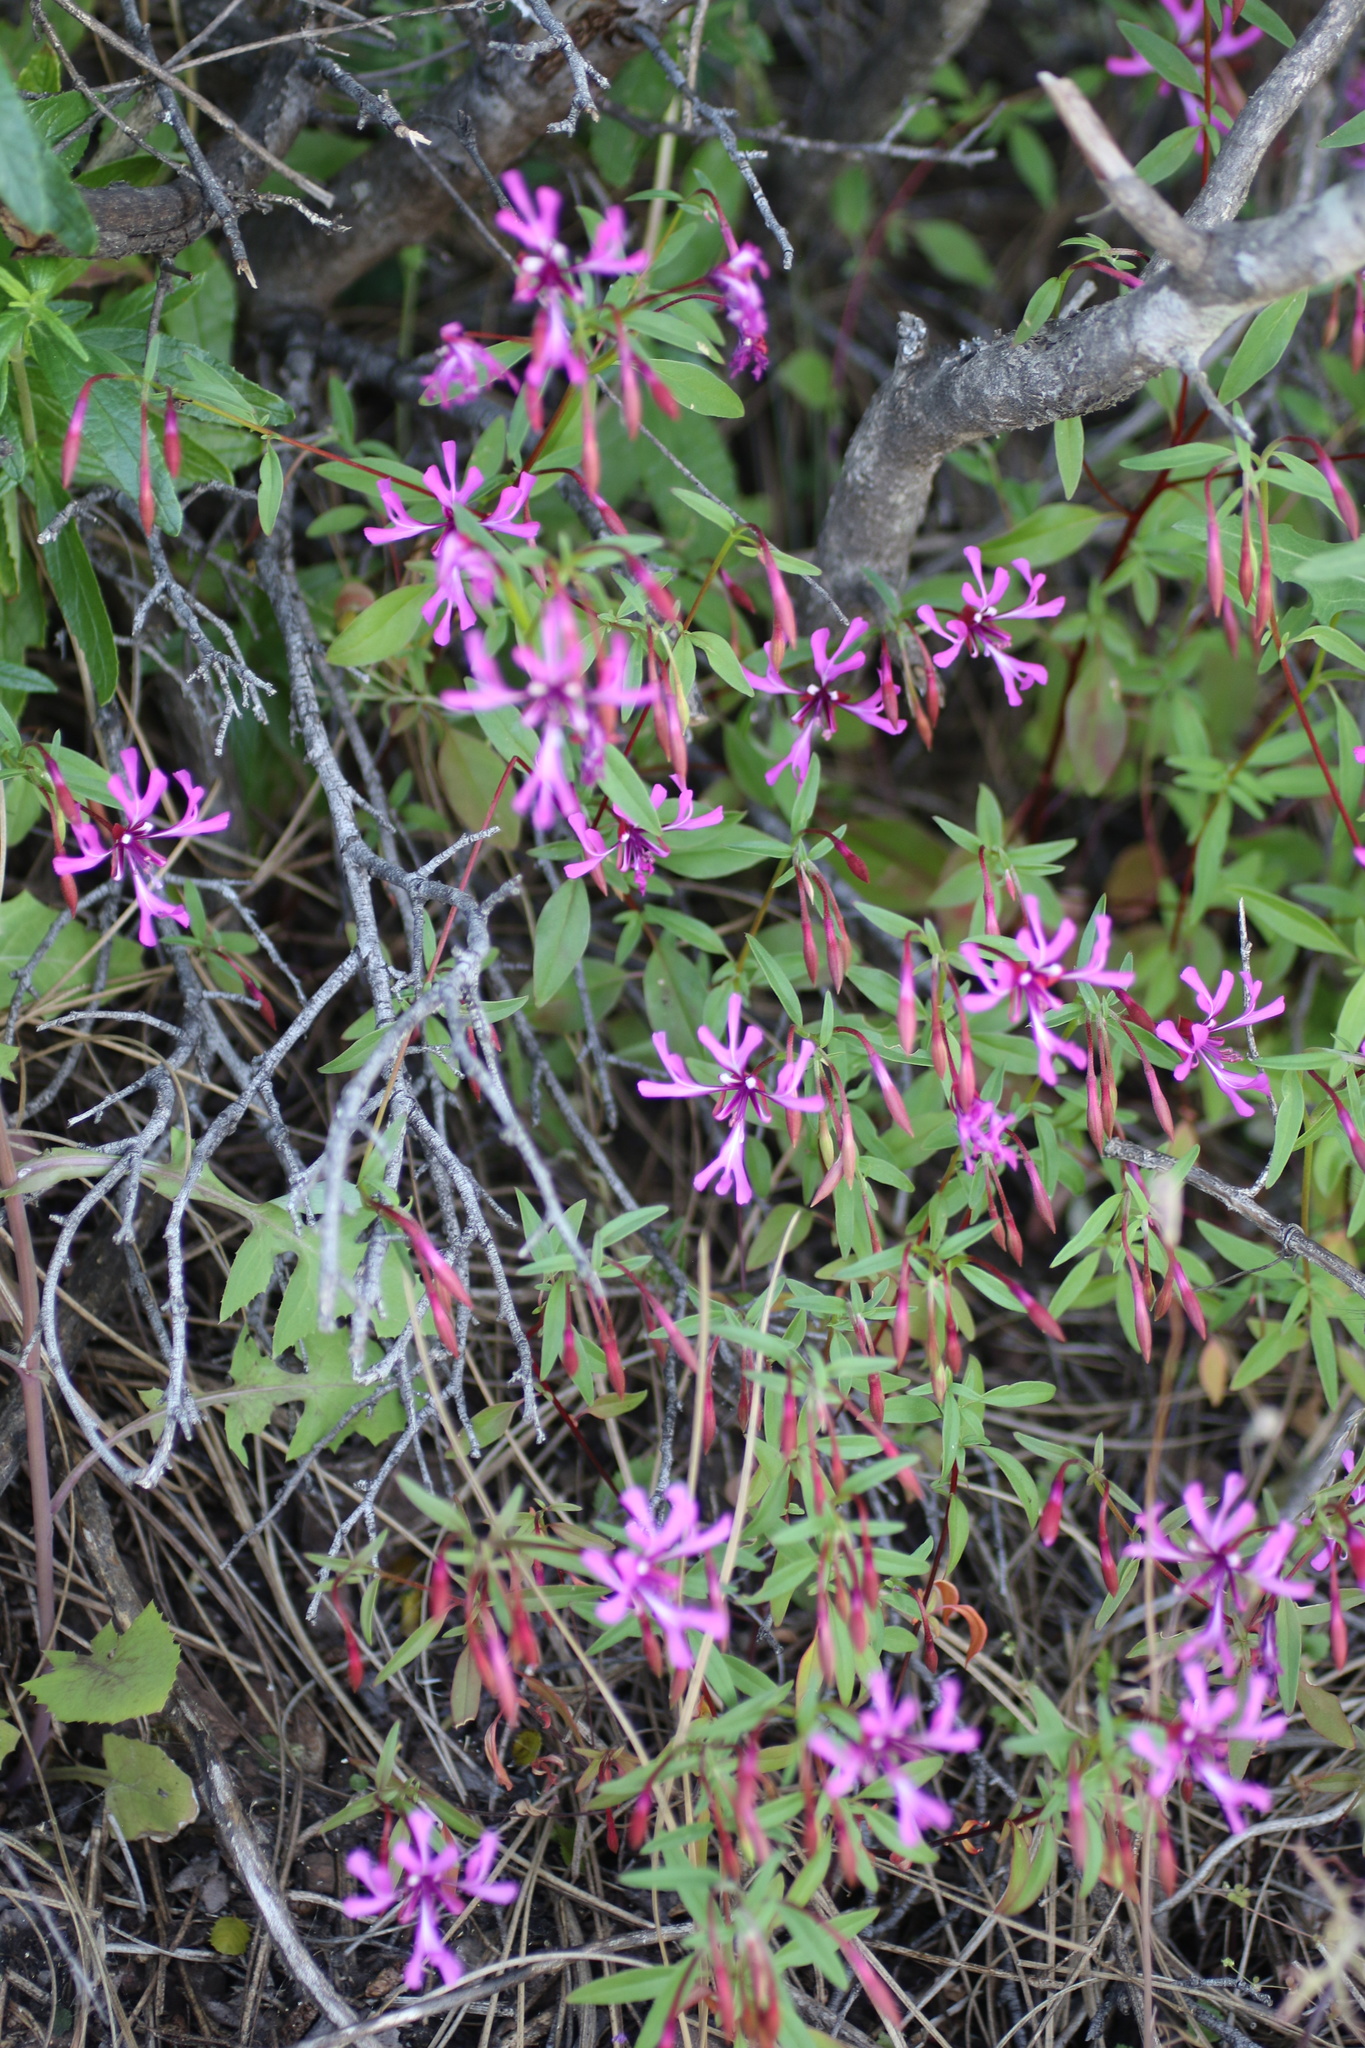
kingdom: Plantae
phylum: Tracheophyta
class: Magnoliopsida
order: Myrtales
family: Onagraceae
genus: Clarkia
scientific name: Clarkia concinna
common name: Red-ribbons
